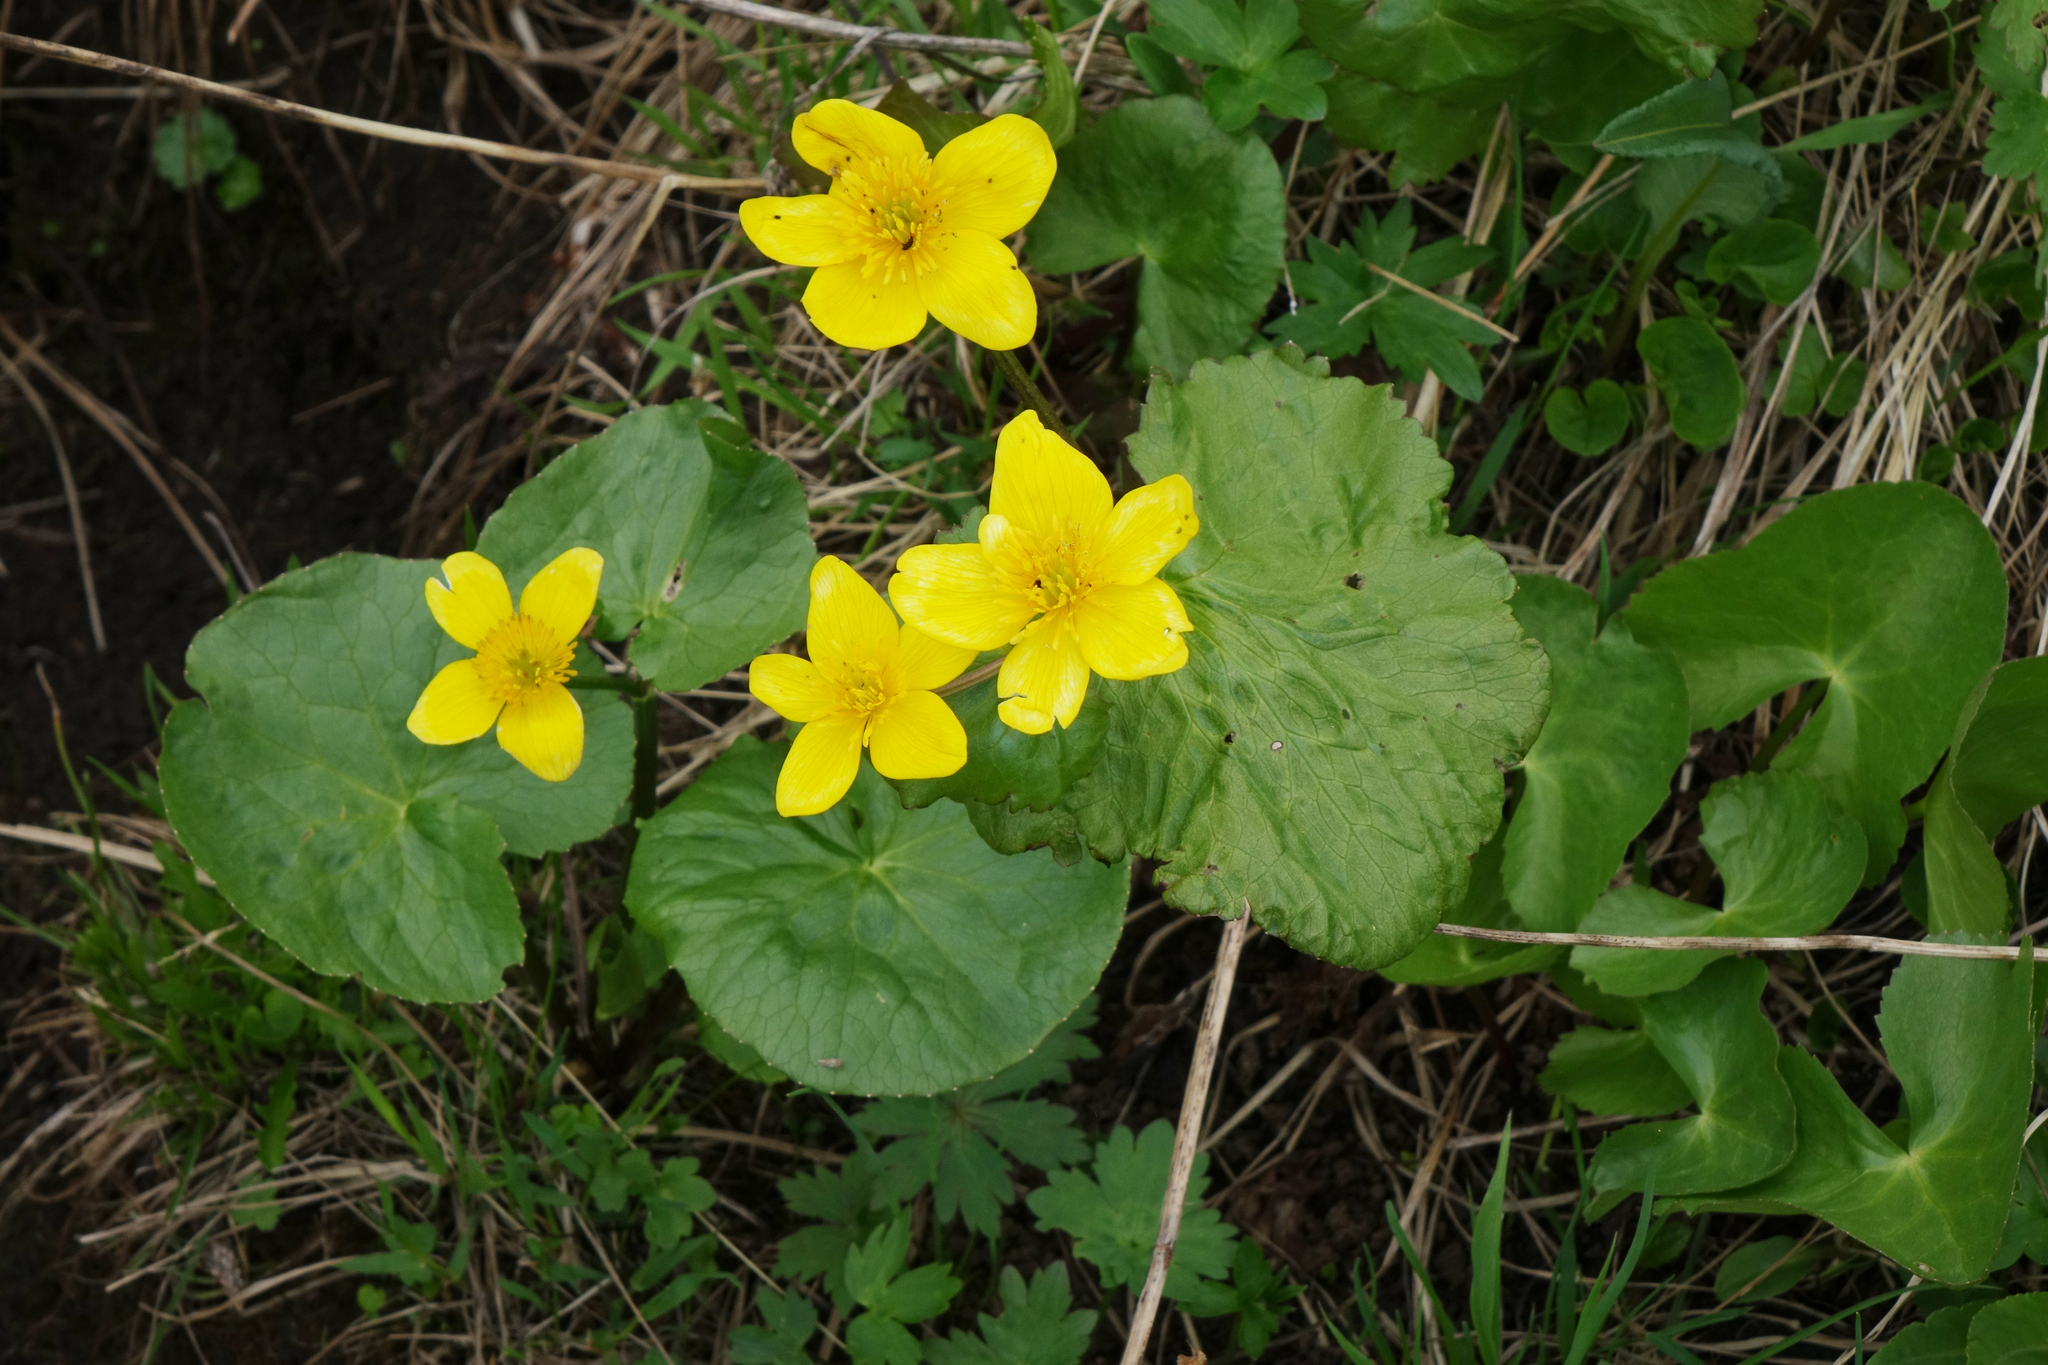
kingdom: Plantae
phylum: Tracheophyta
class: Magnoliopsida
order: Ranunculales
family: Ranunculaceae
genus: Caltha
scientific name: Caltha palustris
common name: Marsh marigold
